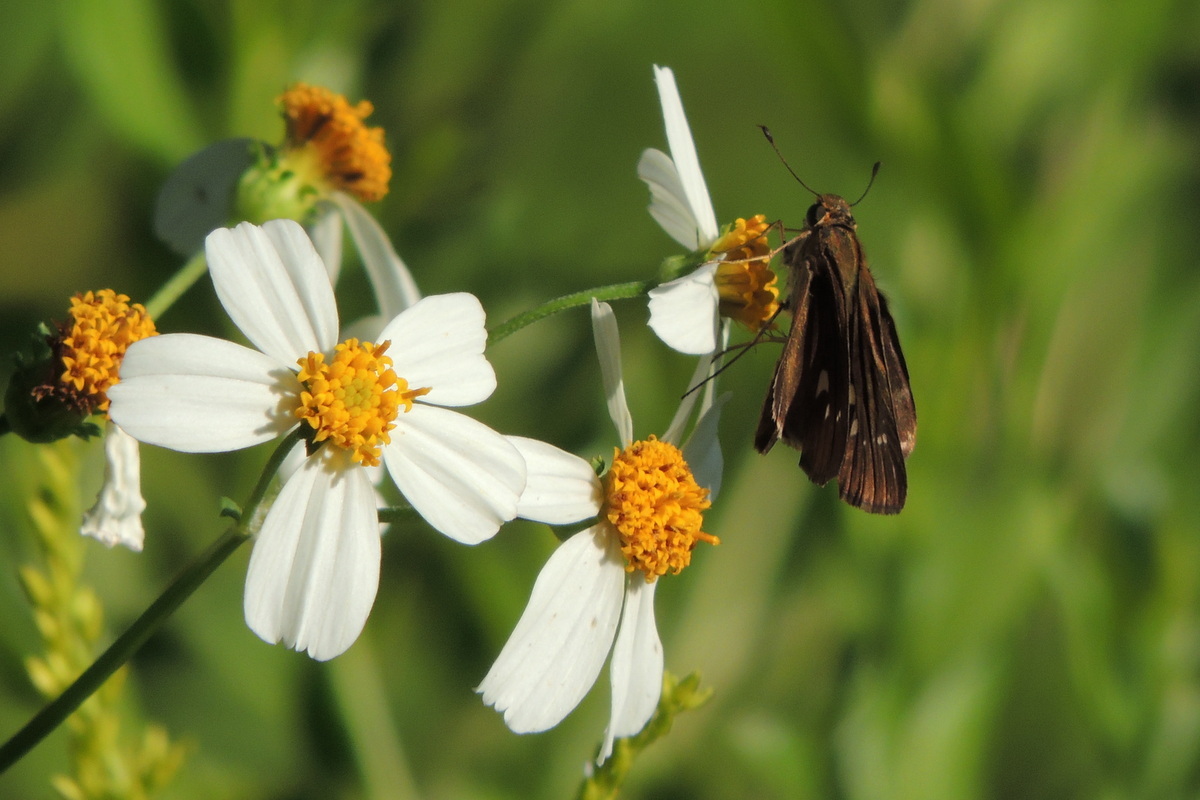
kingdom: Animalia
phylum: Arthropoda
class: Insecta
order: Lepidoptera
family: Hesperiidae
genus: Panoquina
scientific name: Panoquina ocola
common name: Ocola skipper
